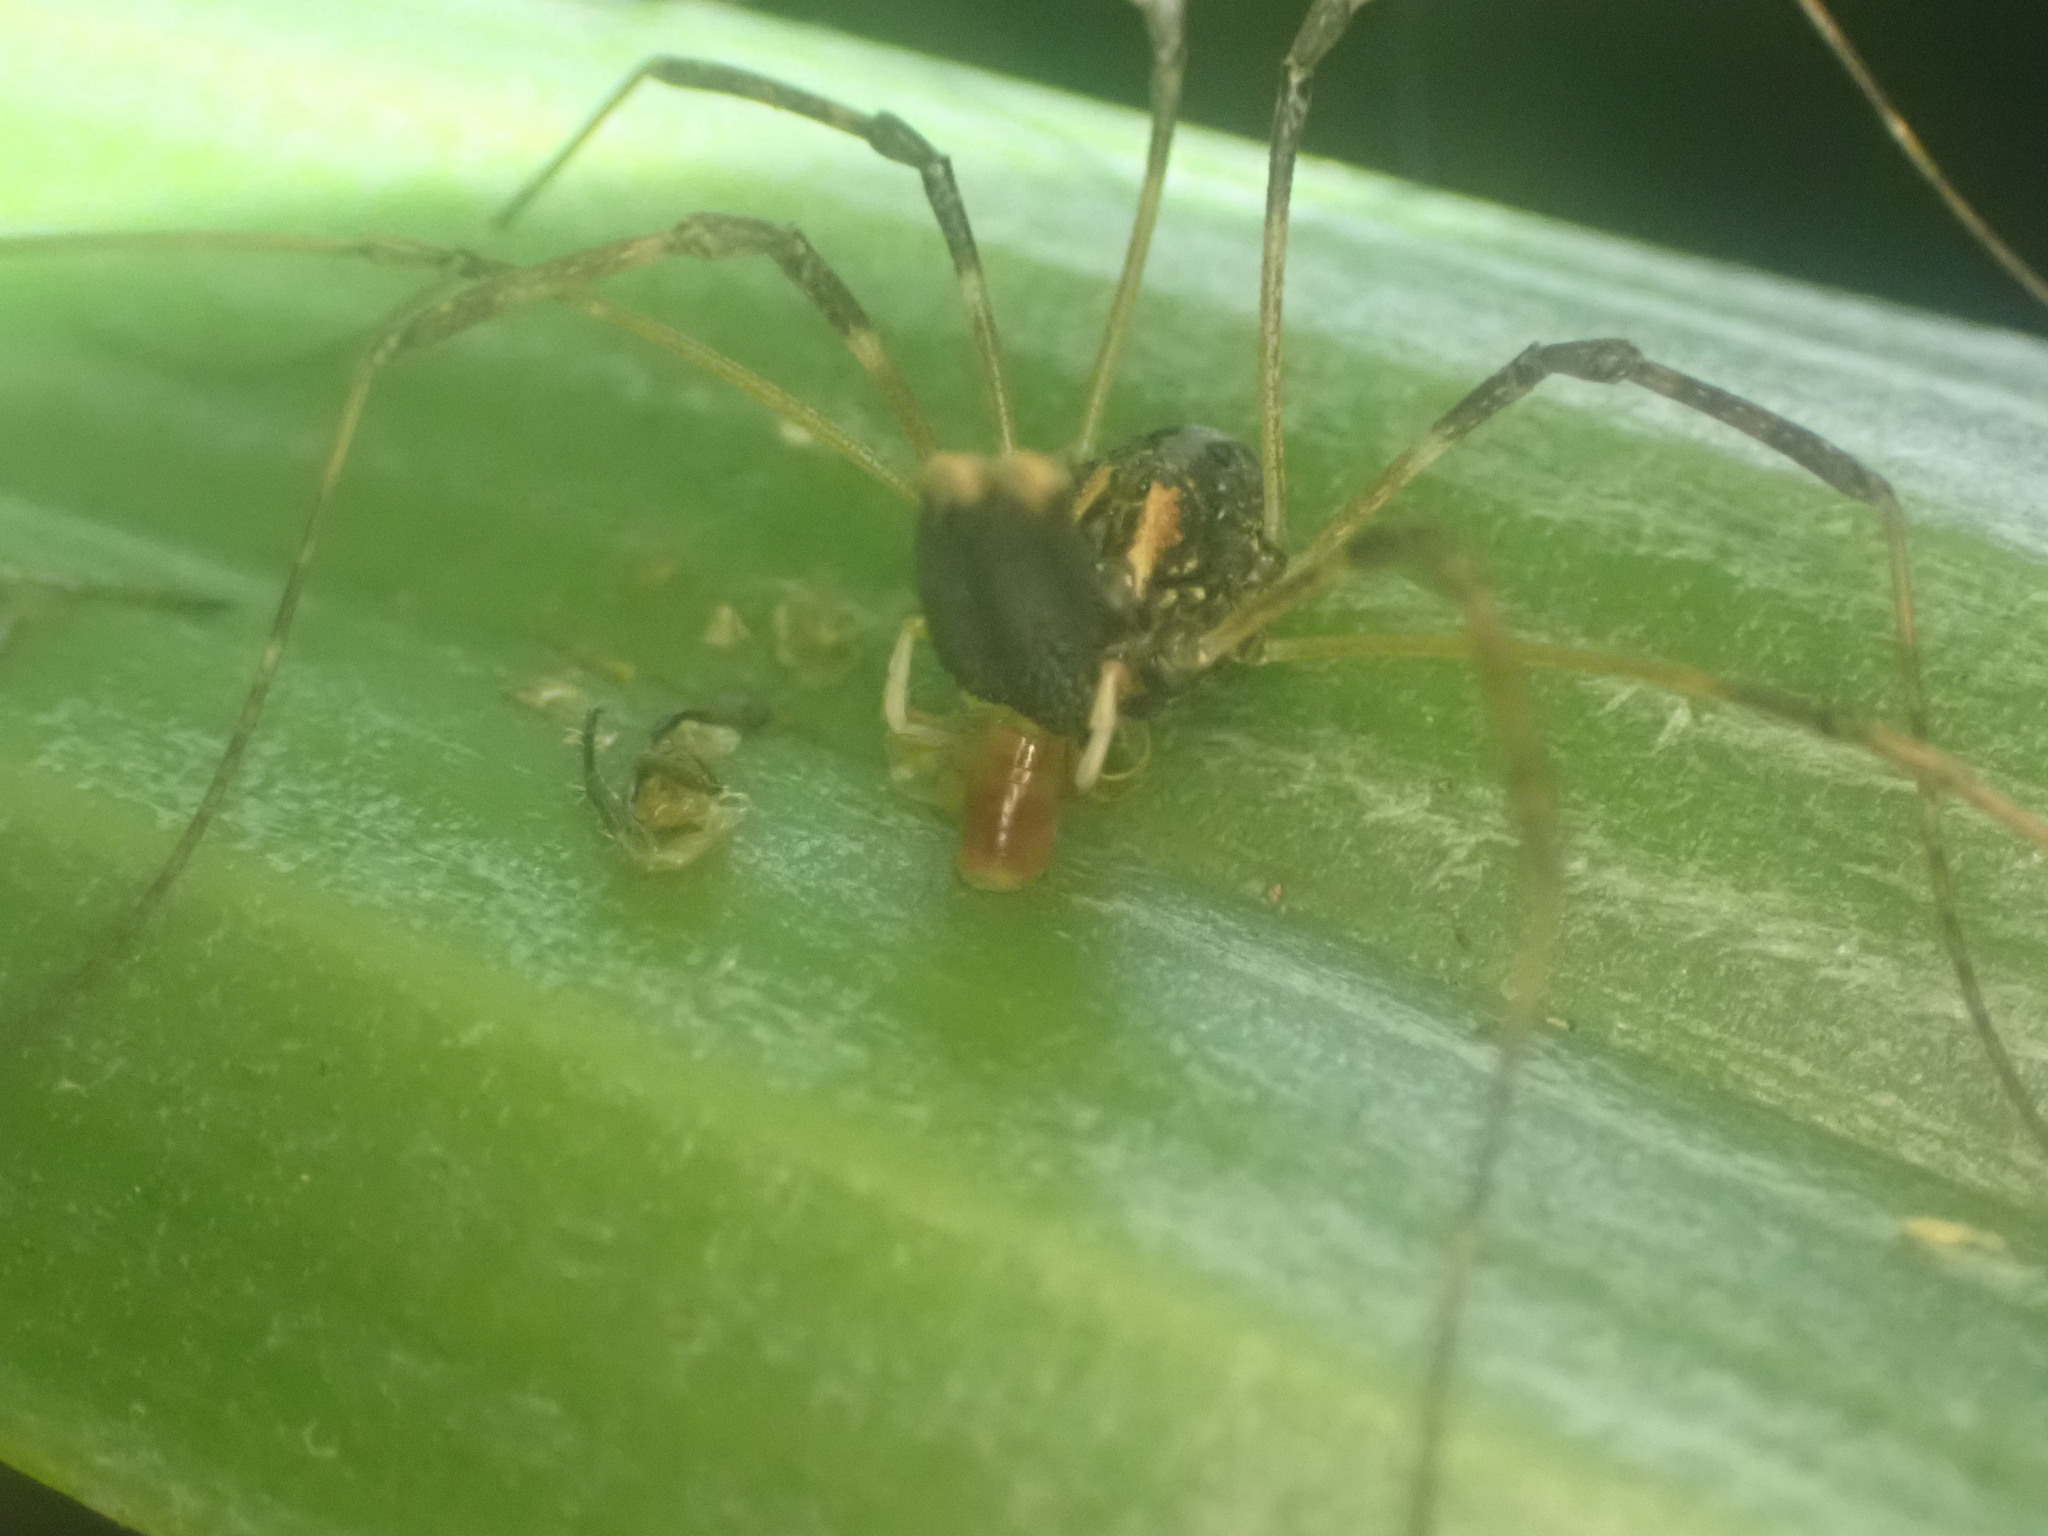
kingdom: Animalia
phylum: Arthropoda
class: Arachnida
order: Opiliones
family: Neopilionidae
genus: Forsteropsalis
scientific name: Forsteropsalis inconstans
